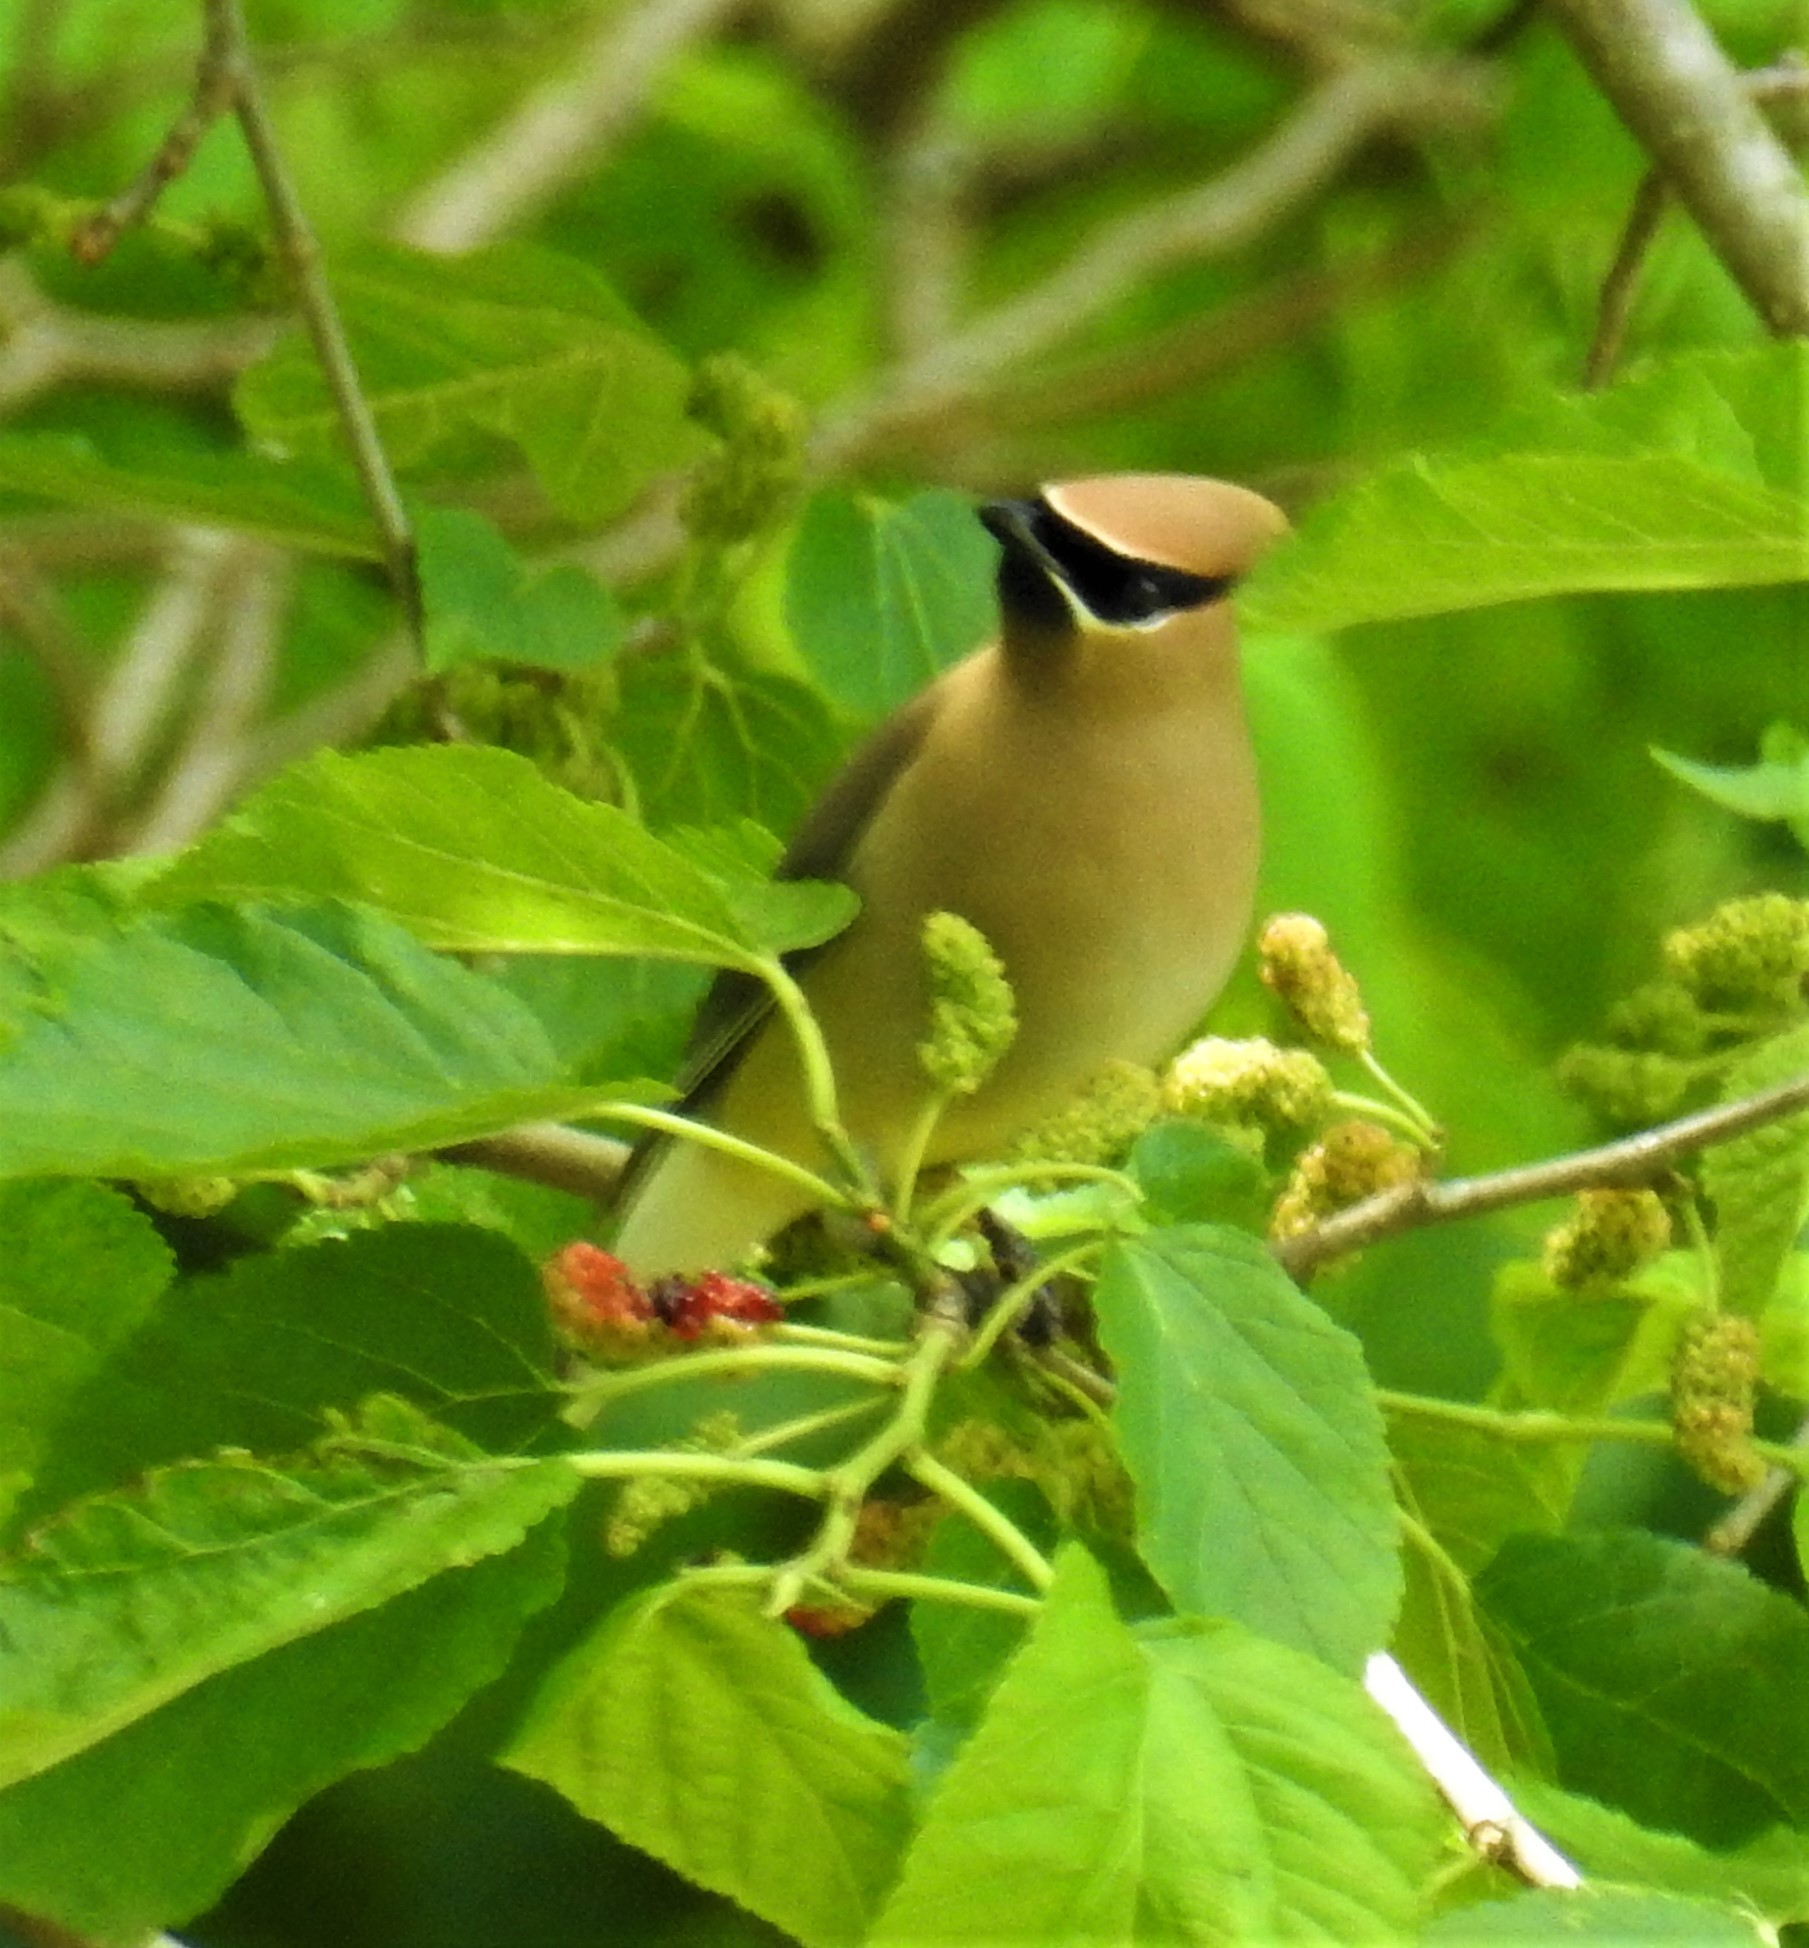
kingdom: Animalia
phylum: Chordata
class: Aves
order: Passeriformes
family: Bombycillidae
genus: Bombycilla
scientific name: Bombycilla cedrorum
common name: Cedar waxwing
